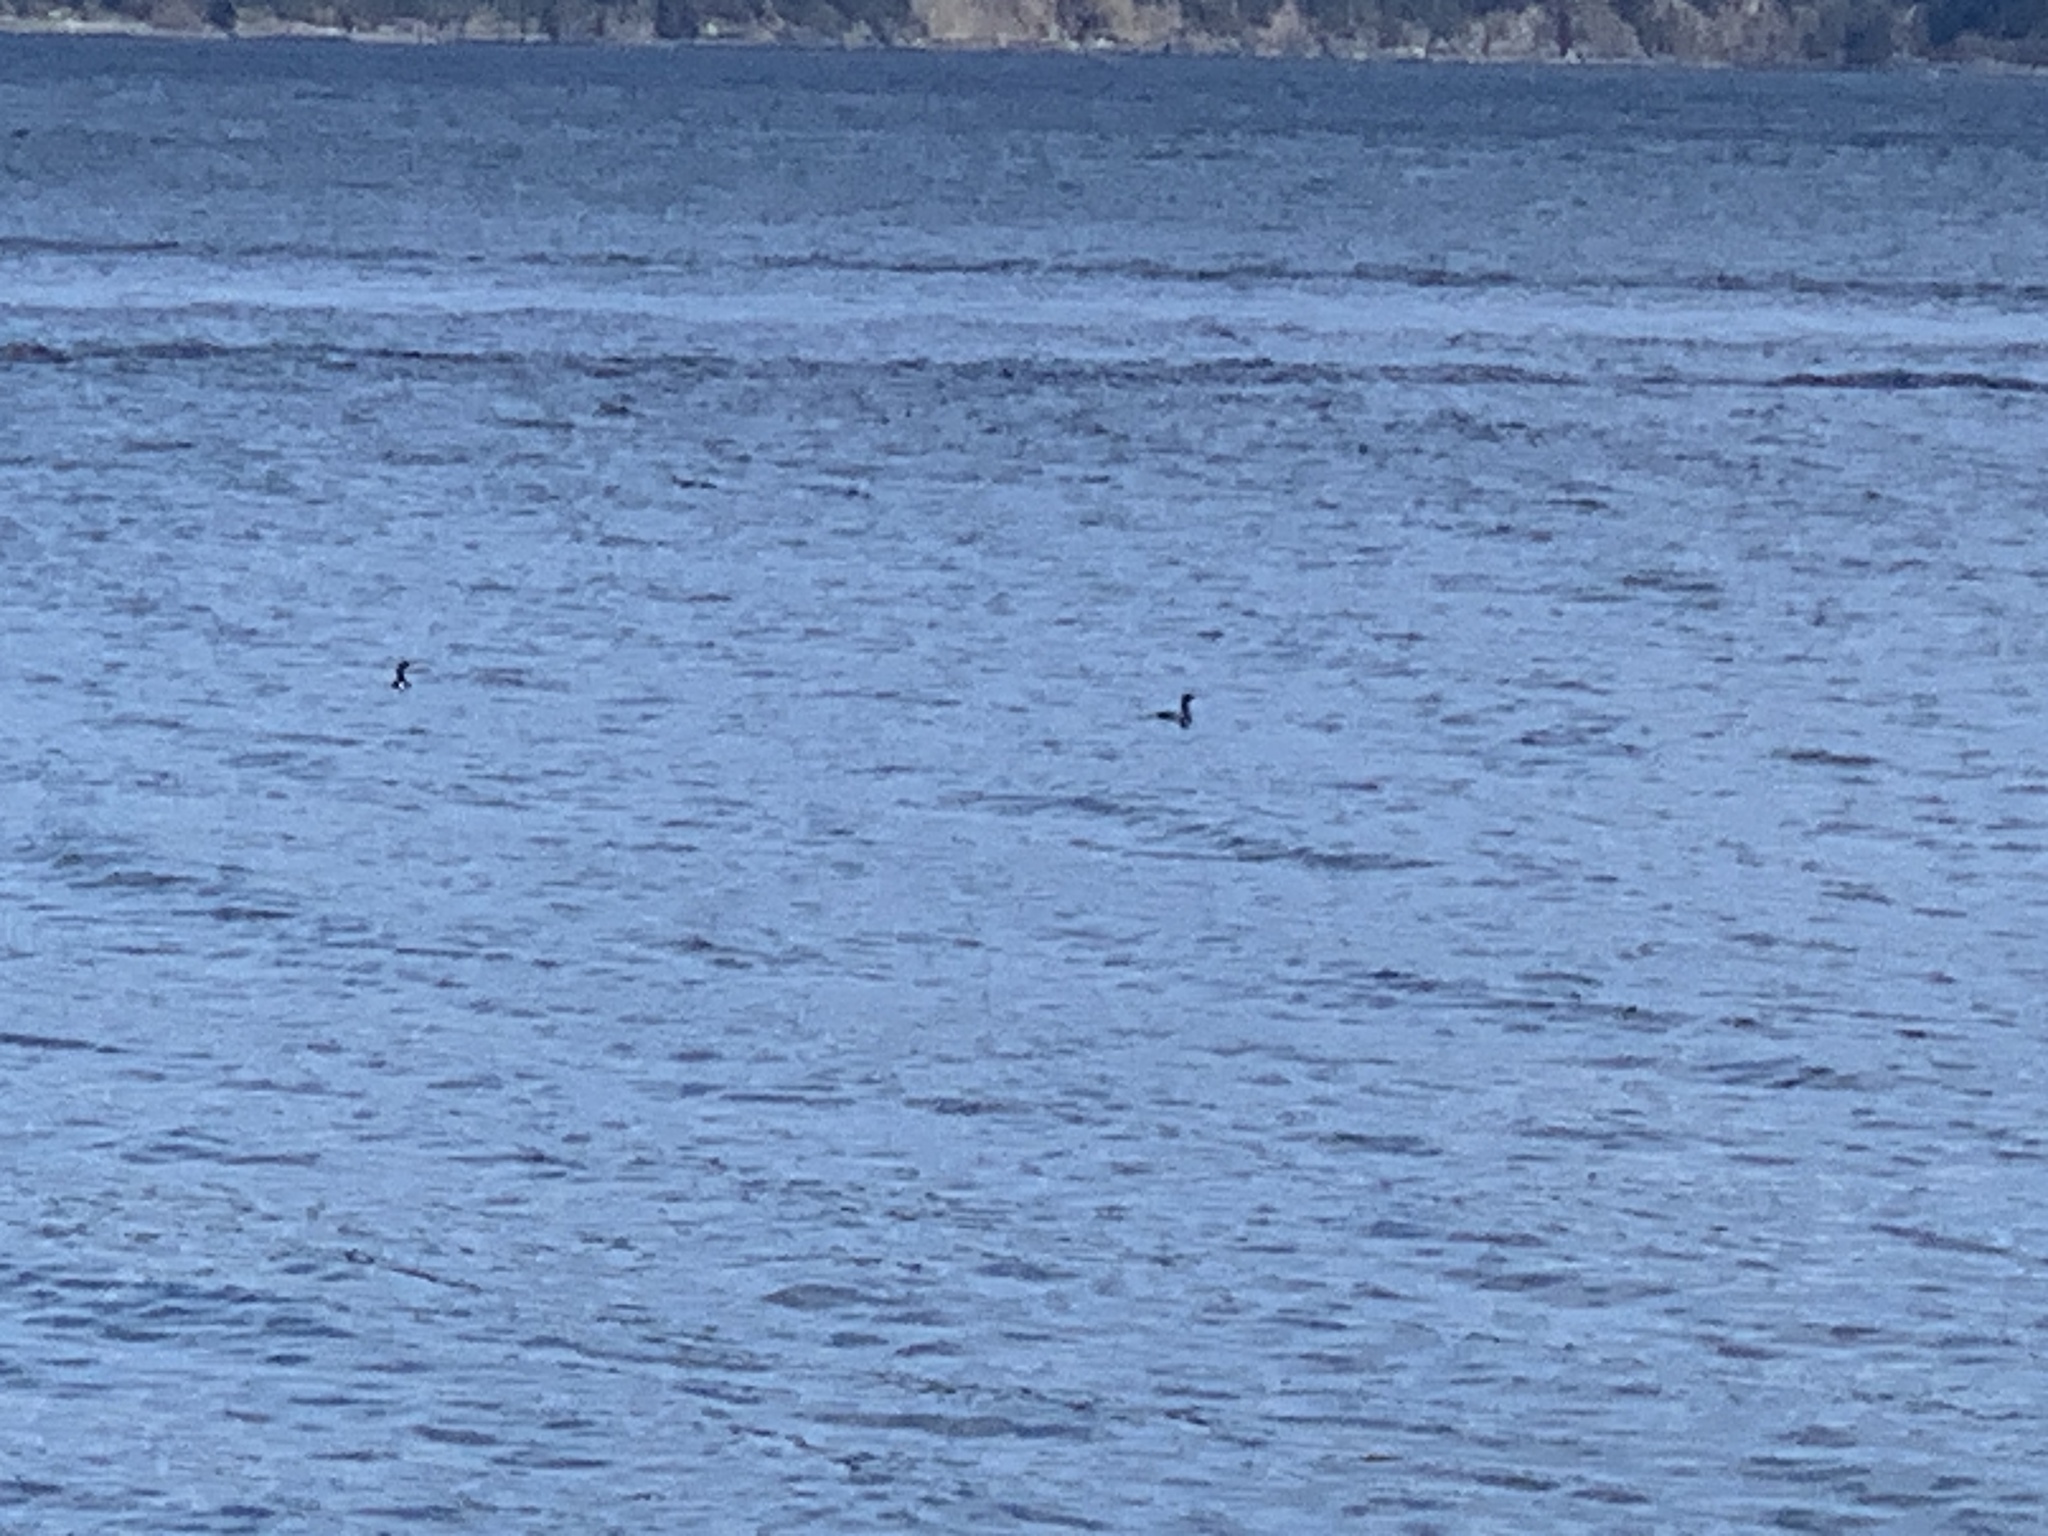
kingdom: Animalia
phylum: Chordata
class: Aves
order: Suliformes
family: Phalacrocoracidae
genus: Phalacrocorax
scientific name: Phalacrocorax pelagicus
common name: Pelagic cormorant
